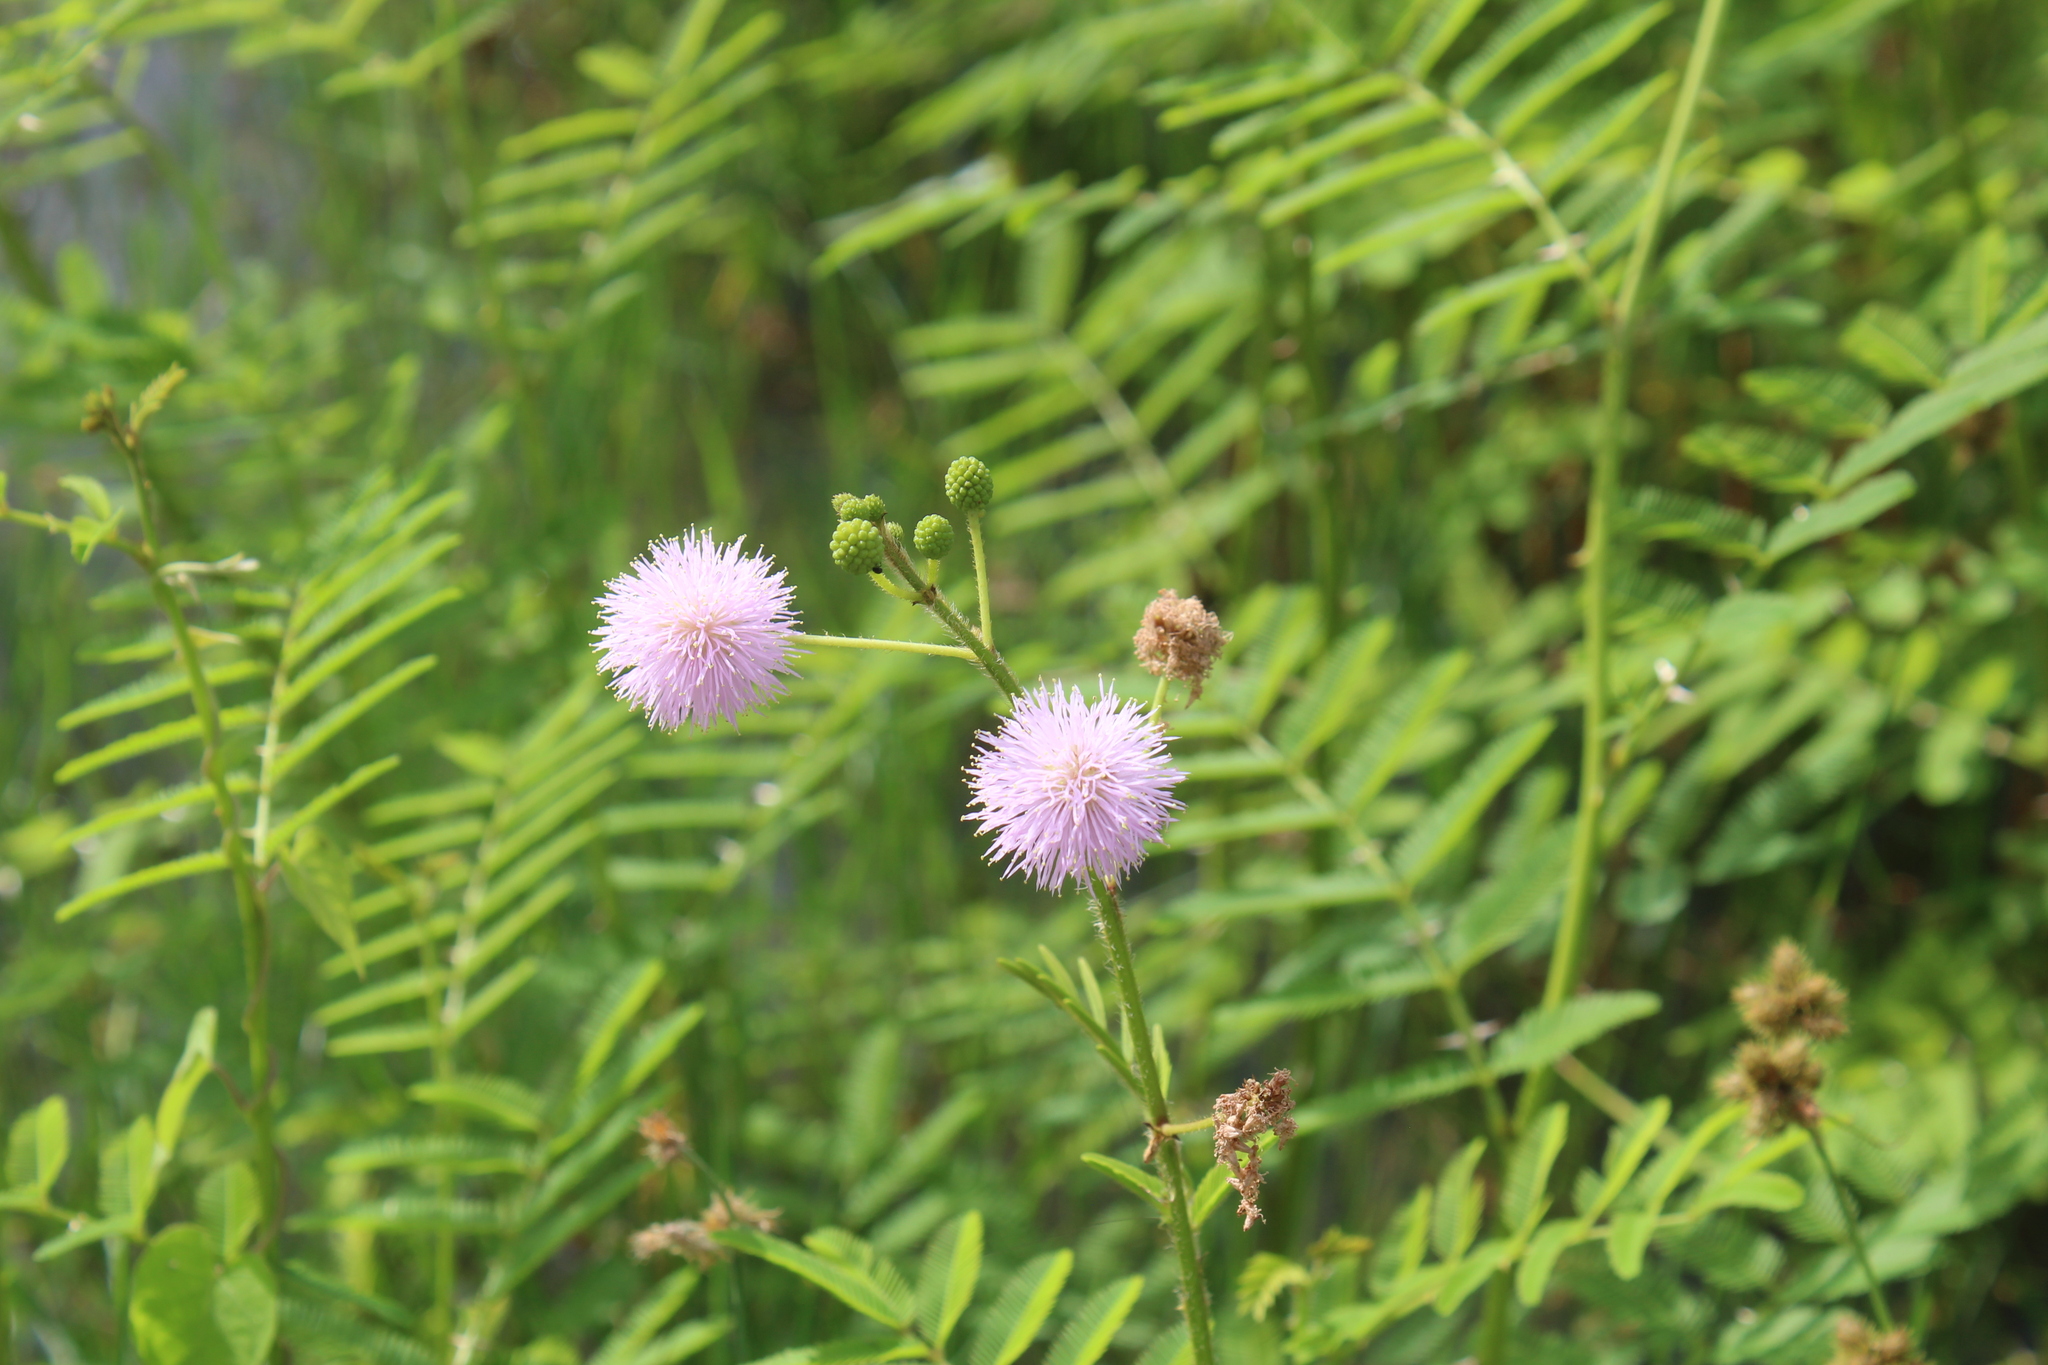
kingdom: Plantae
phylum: Tracheophyta
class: Magnoliopsida
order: Fabales
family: Fabaceae
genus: Mimosa
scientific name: Mimosa pigra
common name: Black mimosa
